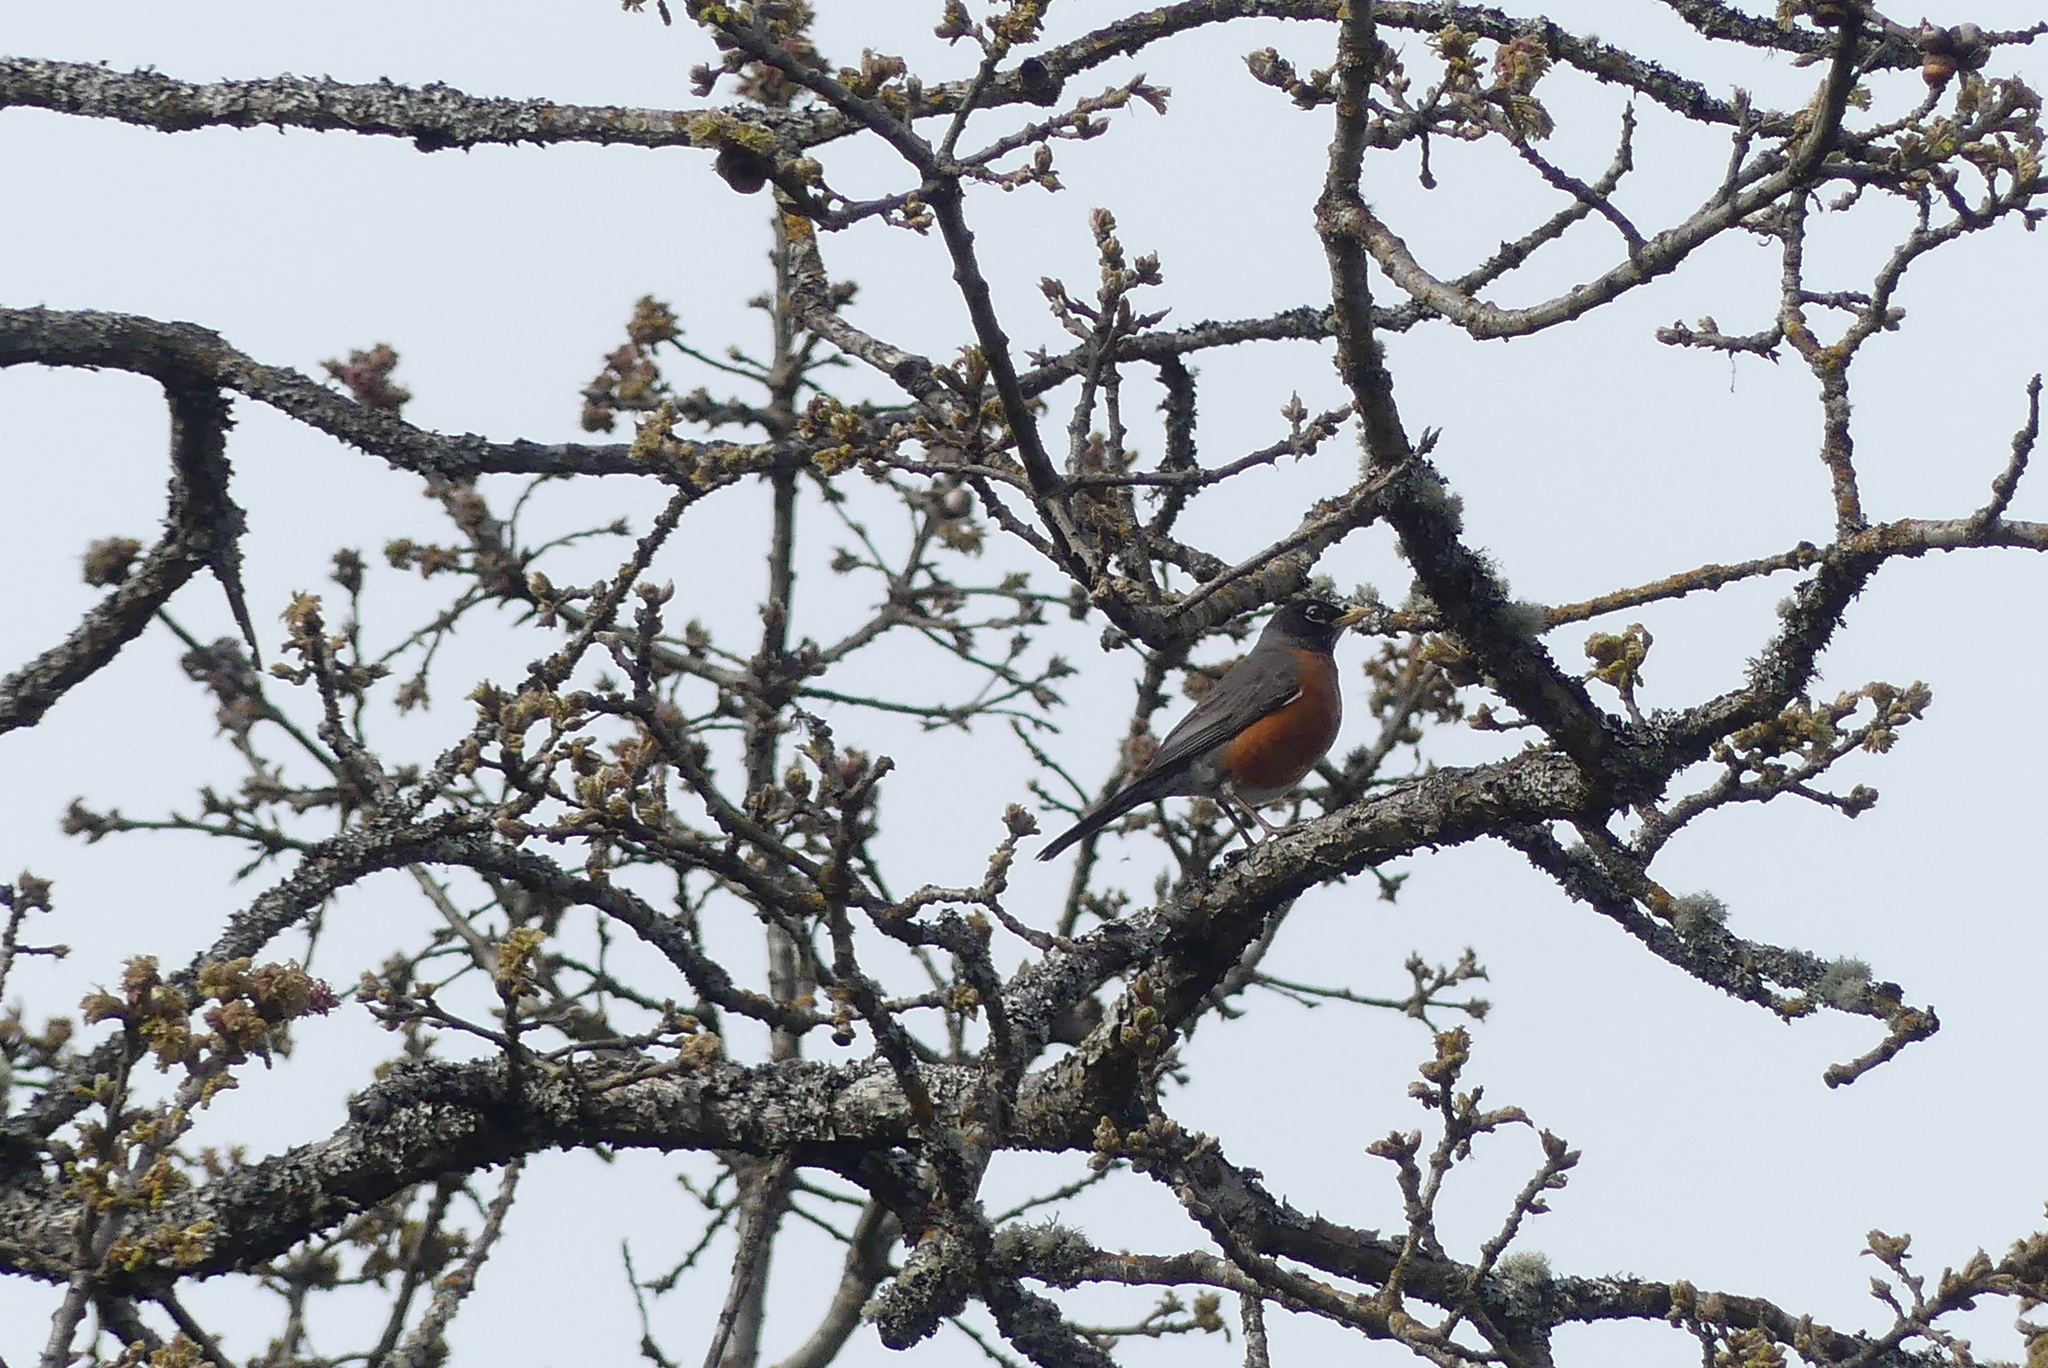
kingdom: Animalia
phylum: Chordata
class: Aves
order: Passeriformes
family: Turdidae
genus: Turdus
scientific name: Turdus migratorius
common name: American robin
